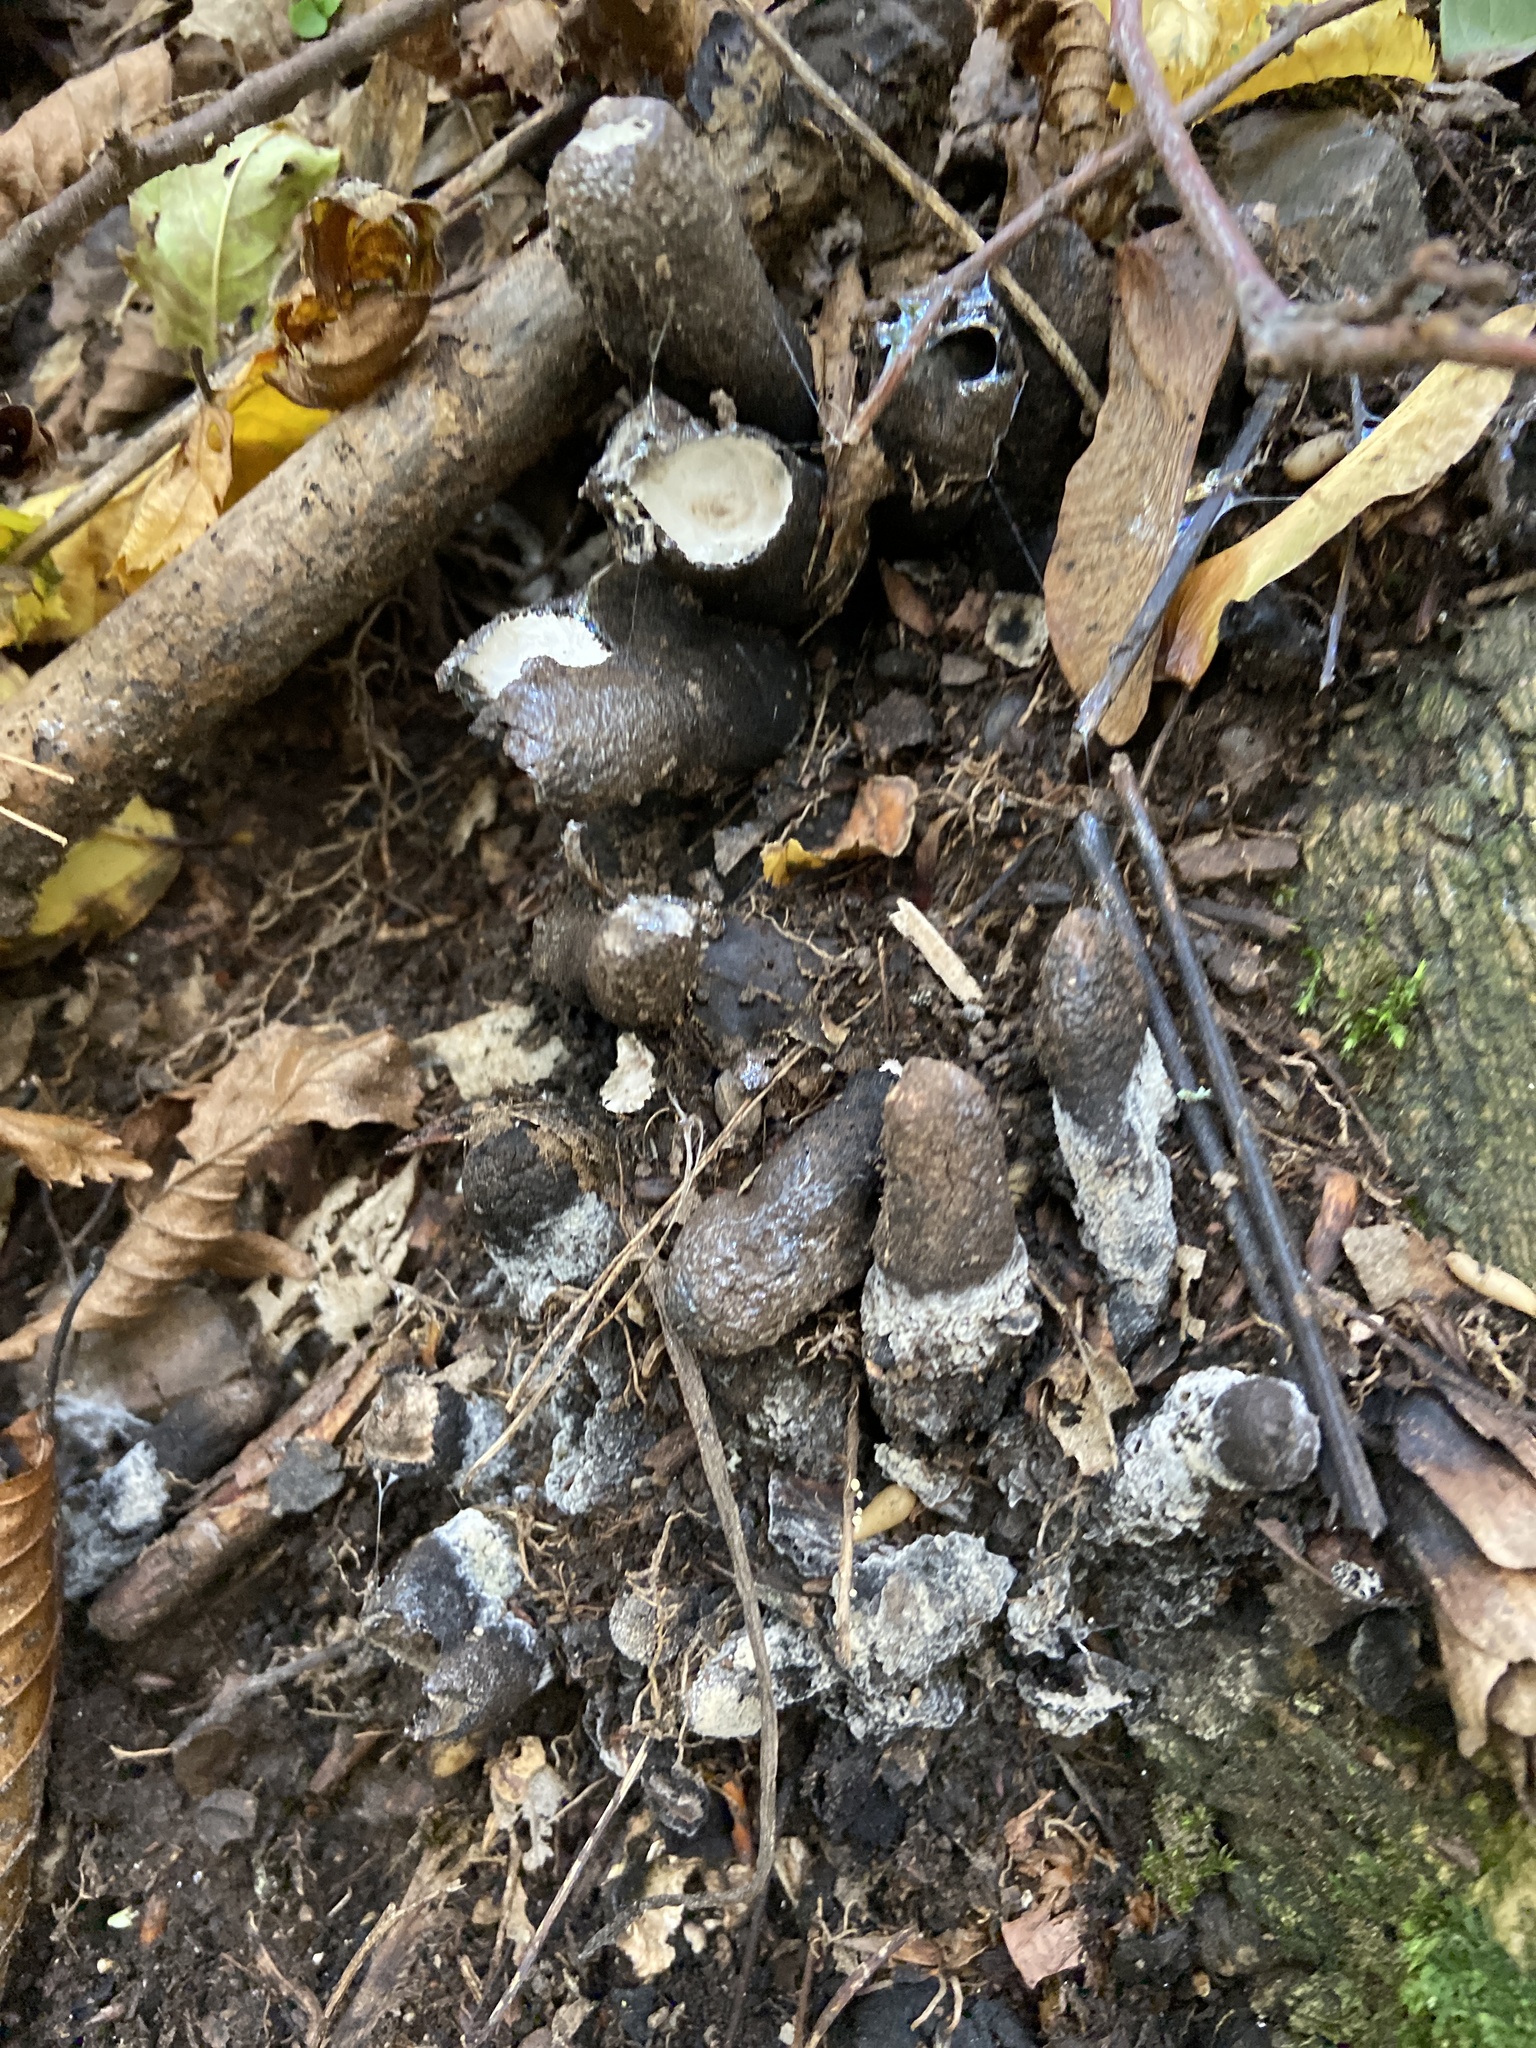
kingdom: Fungi
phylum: Ascomycota
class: Sordariomycetes
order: Xylariales
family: Xylariaceae
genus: Xylaria
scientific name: Xylaria polymorpha
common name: Dead man's fingers
